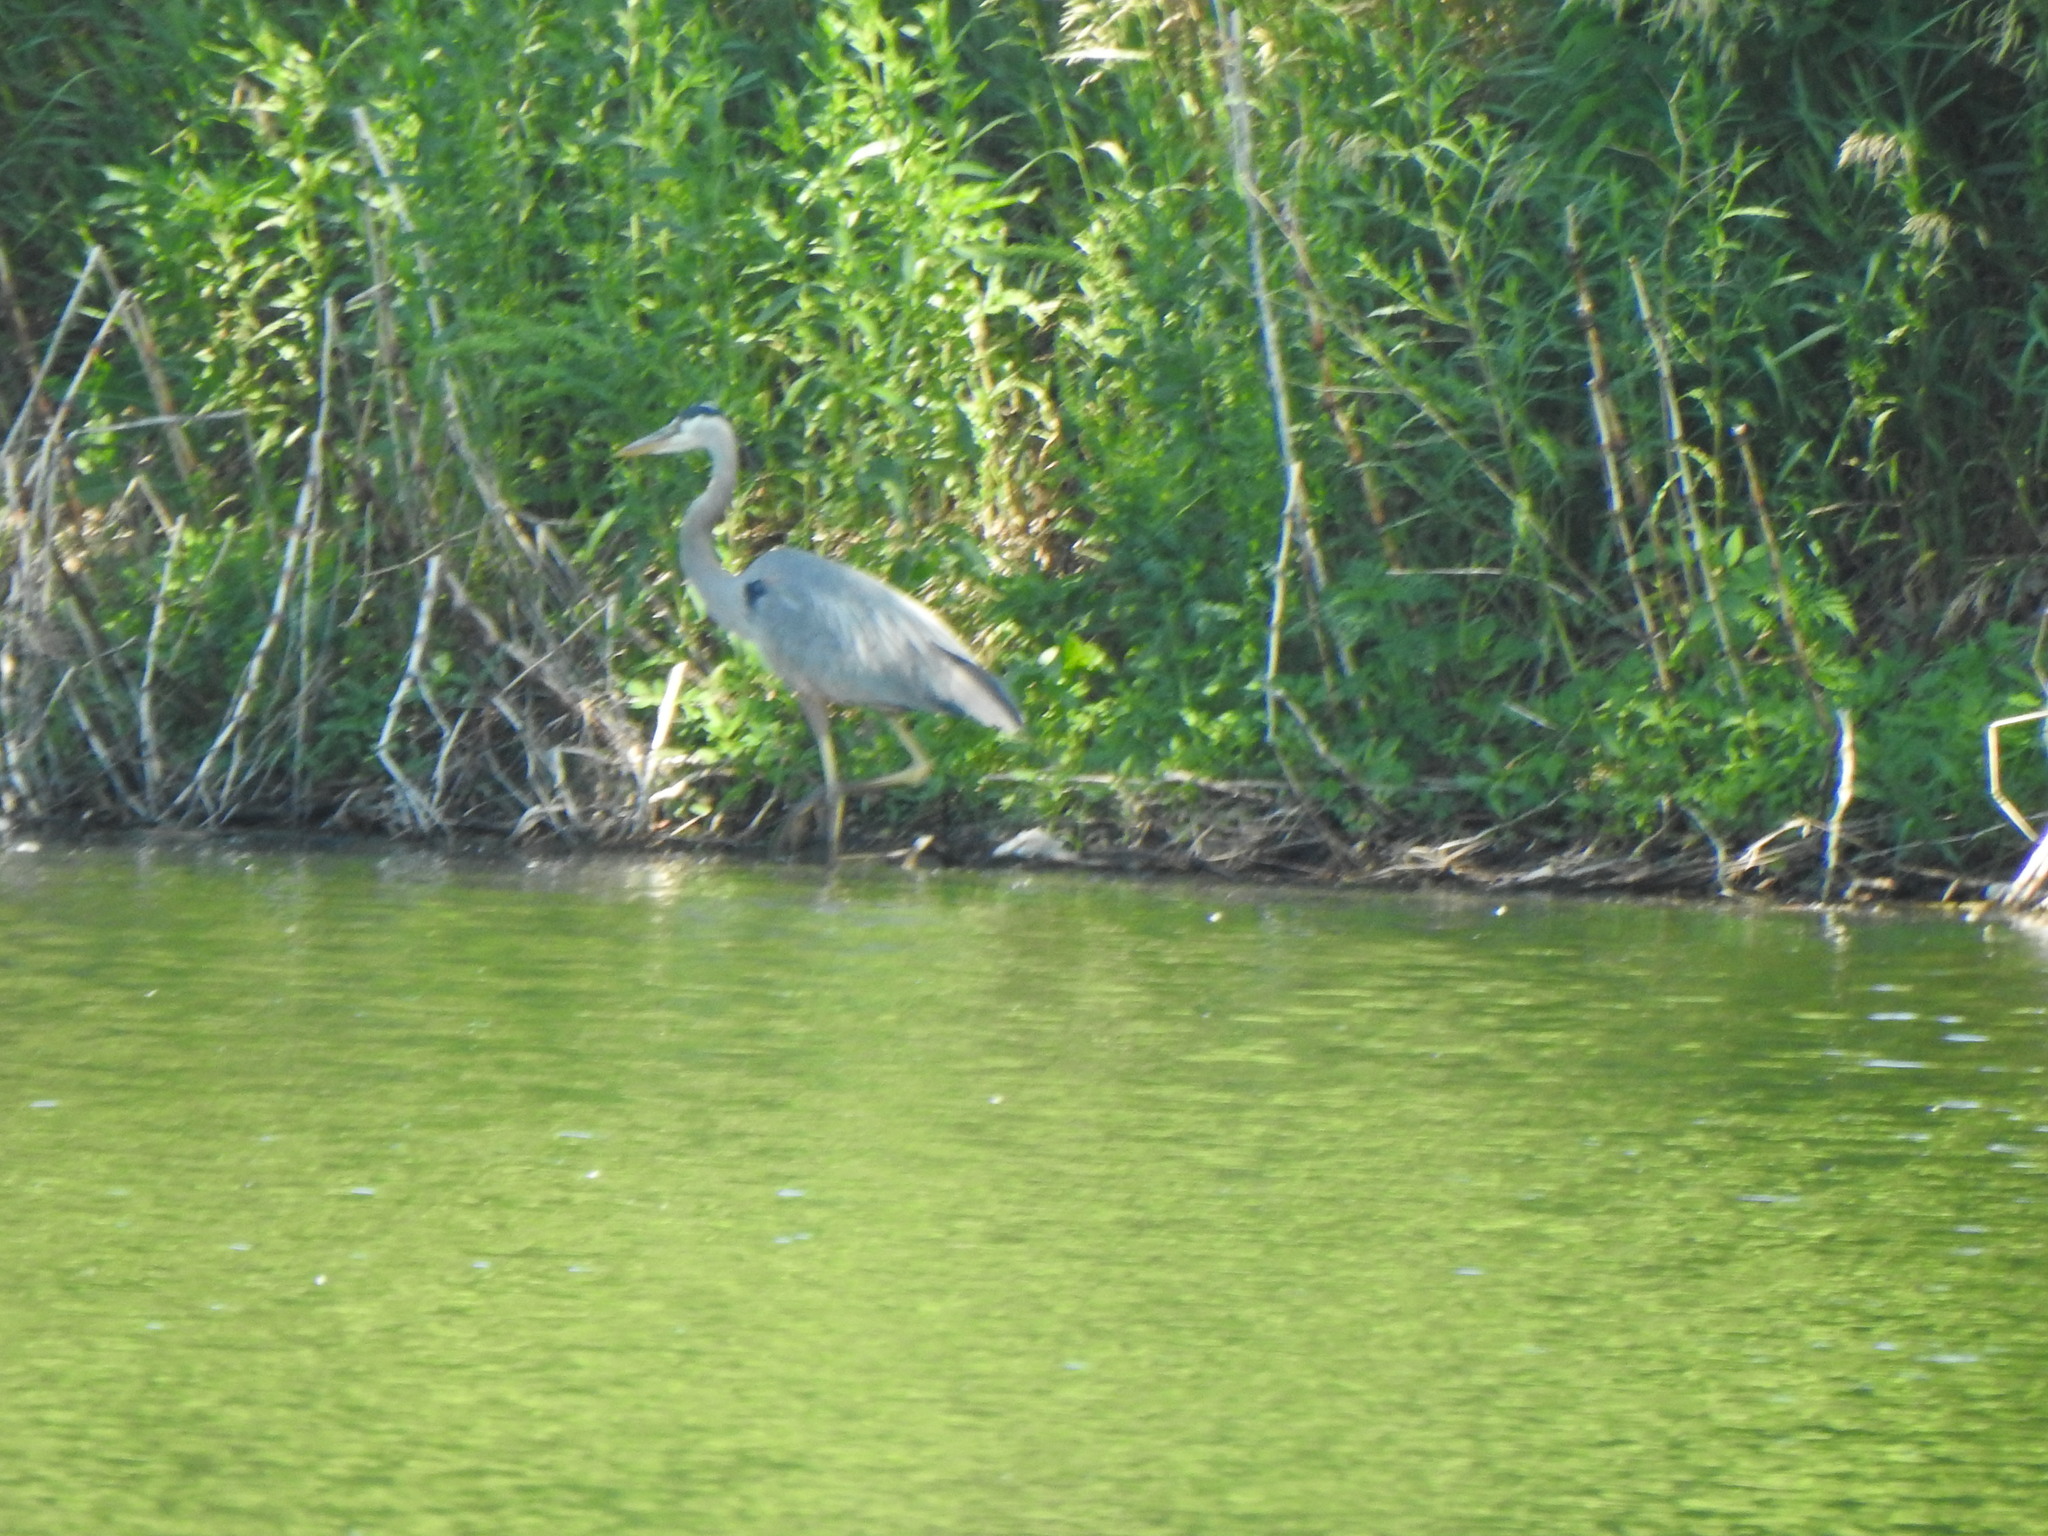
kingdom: Animalia
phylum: Chordata
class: Aves
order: Pelecaniformes
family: Ardeidae
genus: Ardea
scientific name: Ardea herodias
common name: Great blue heron
